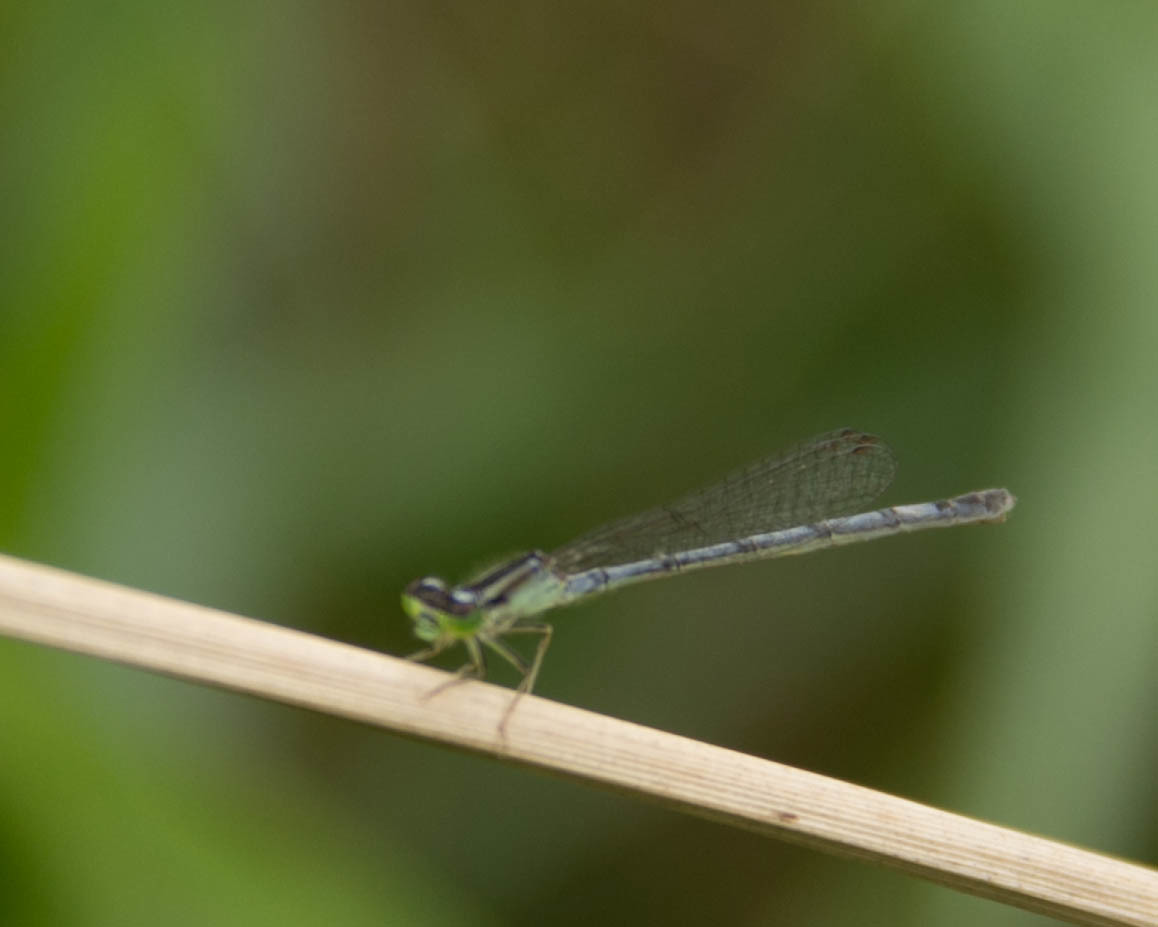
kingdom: Animalia
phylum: Arthropoda
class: Insecta
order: Odonata
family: Coenagrionidae
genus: Ischnura
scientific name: Ischnura verticalis
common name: Eastern forktail
